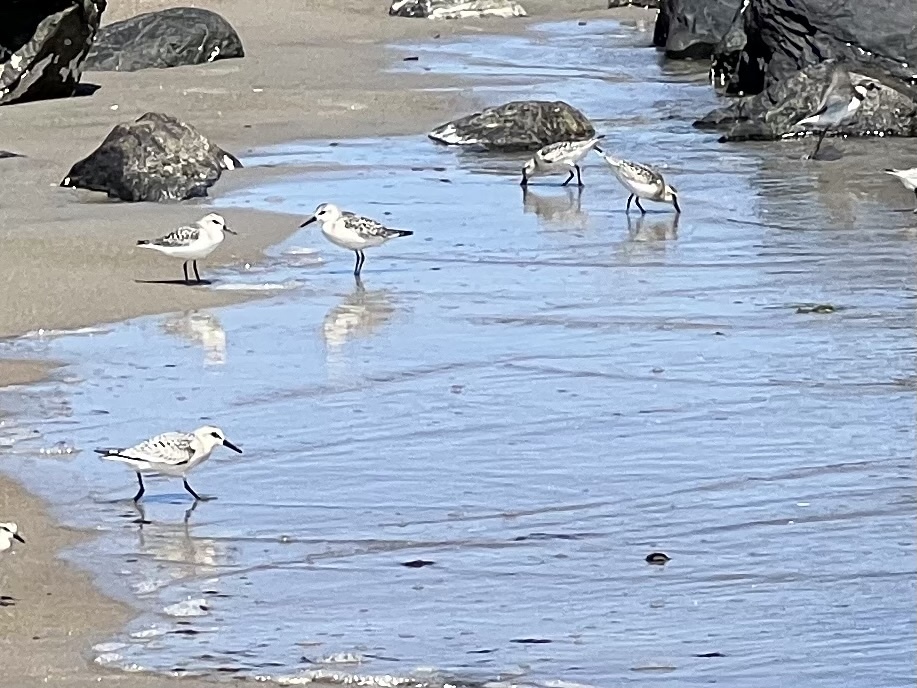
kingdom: Animalia
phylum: Chordata
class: Aves
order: Charadriiformes
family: Scolopacidae
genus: Calidris
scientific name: Calidris alba
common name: Sanderling
